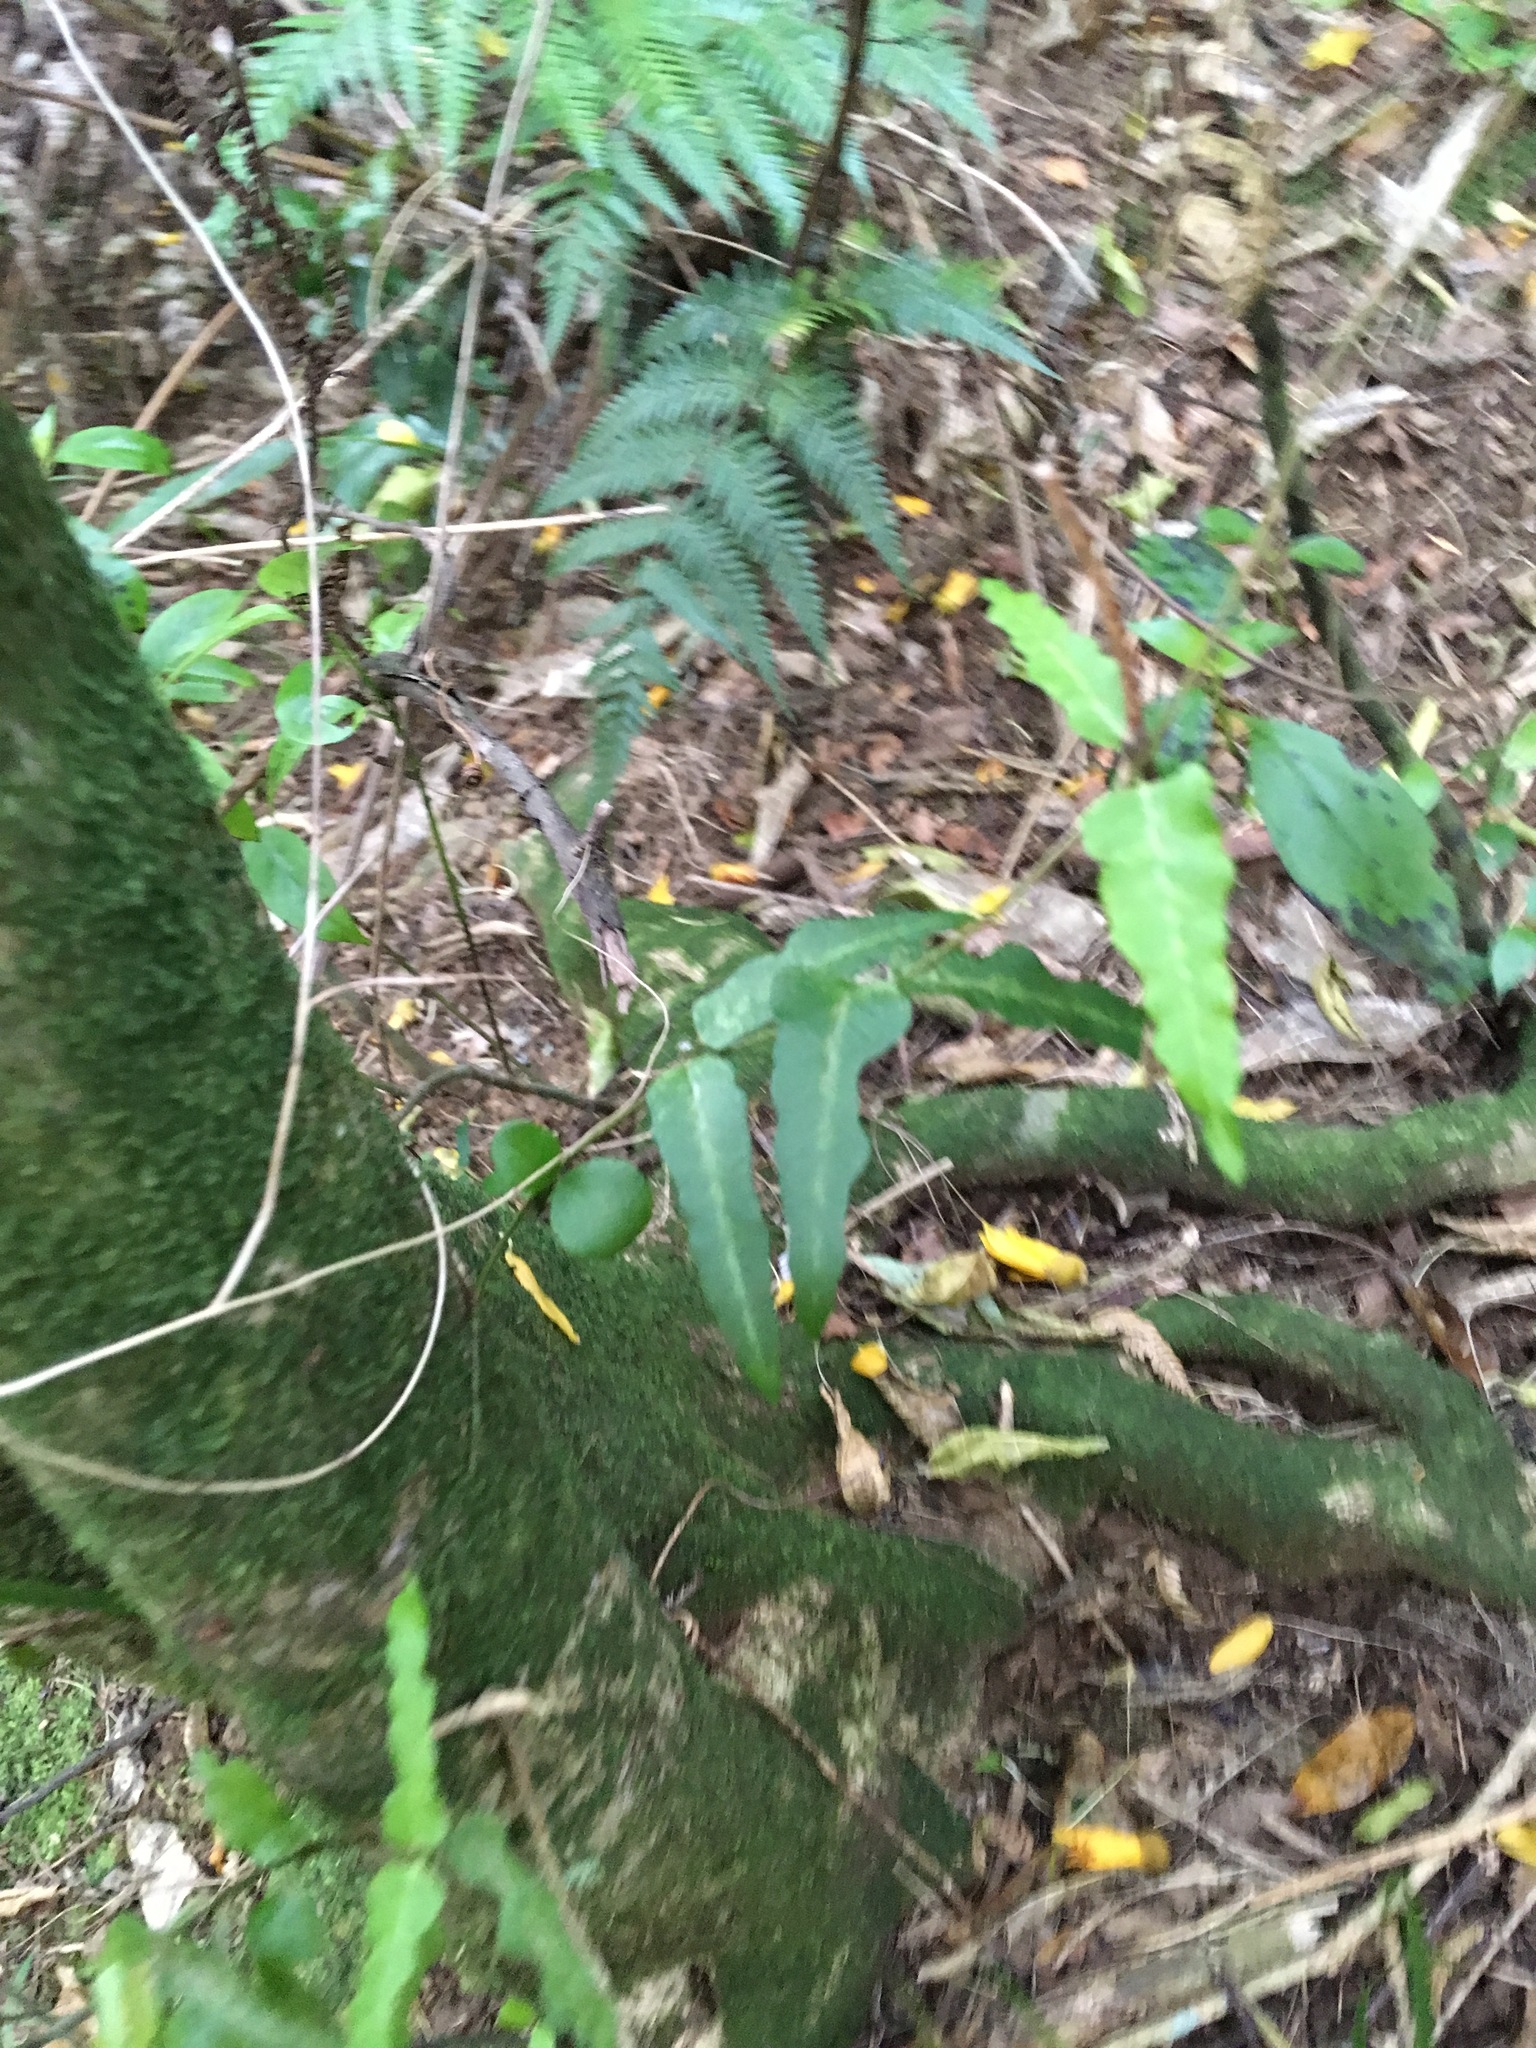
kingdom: Plantae
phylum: Tracheophyta
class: Magnoliopsida
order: Gentianales
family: Apocynaceae
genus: Parsonsia
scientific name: Parsonsia heterophylla
